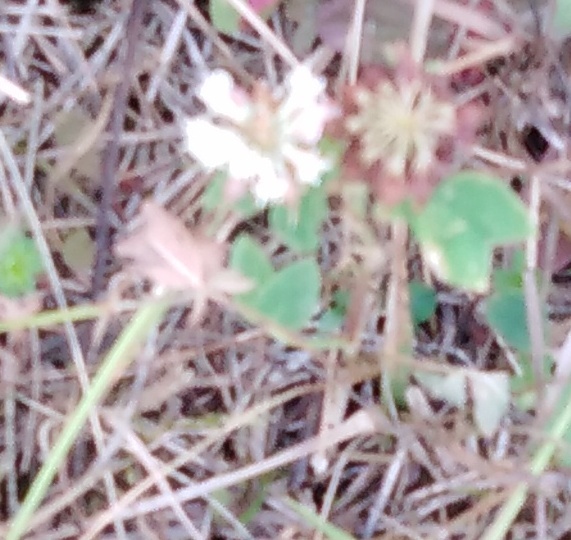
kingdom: Plantae
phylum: Tracheophyta
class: Magnoliopsida
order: Fabales
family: Fabaceae
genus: Trifolium
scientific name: Trifolium hybridum
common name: Alsike clover
